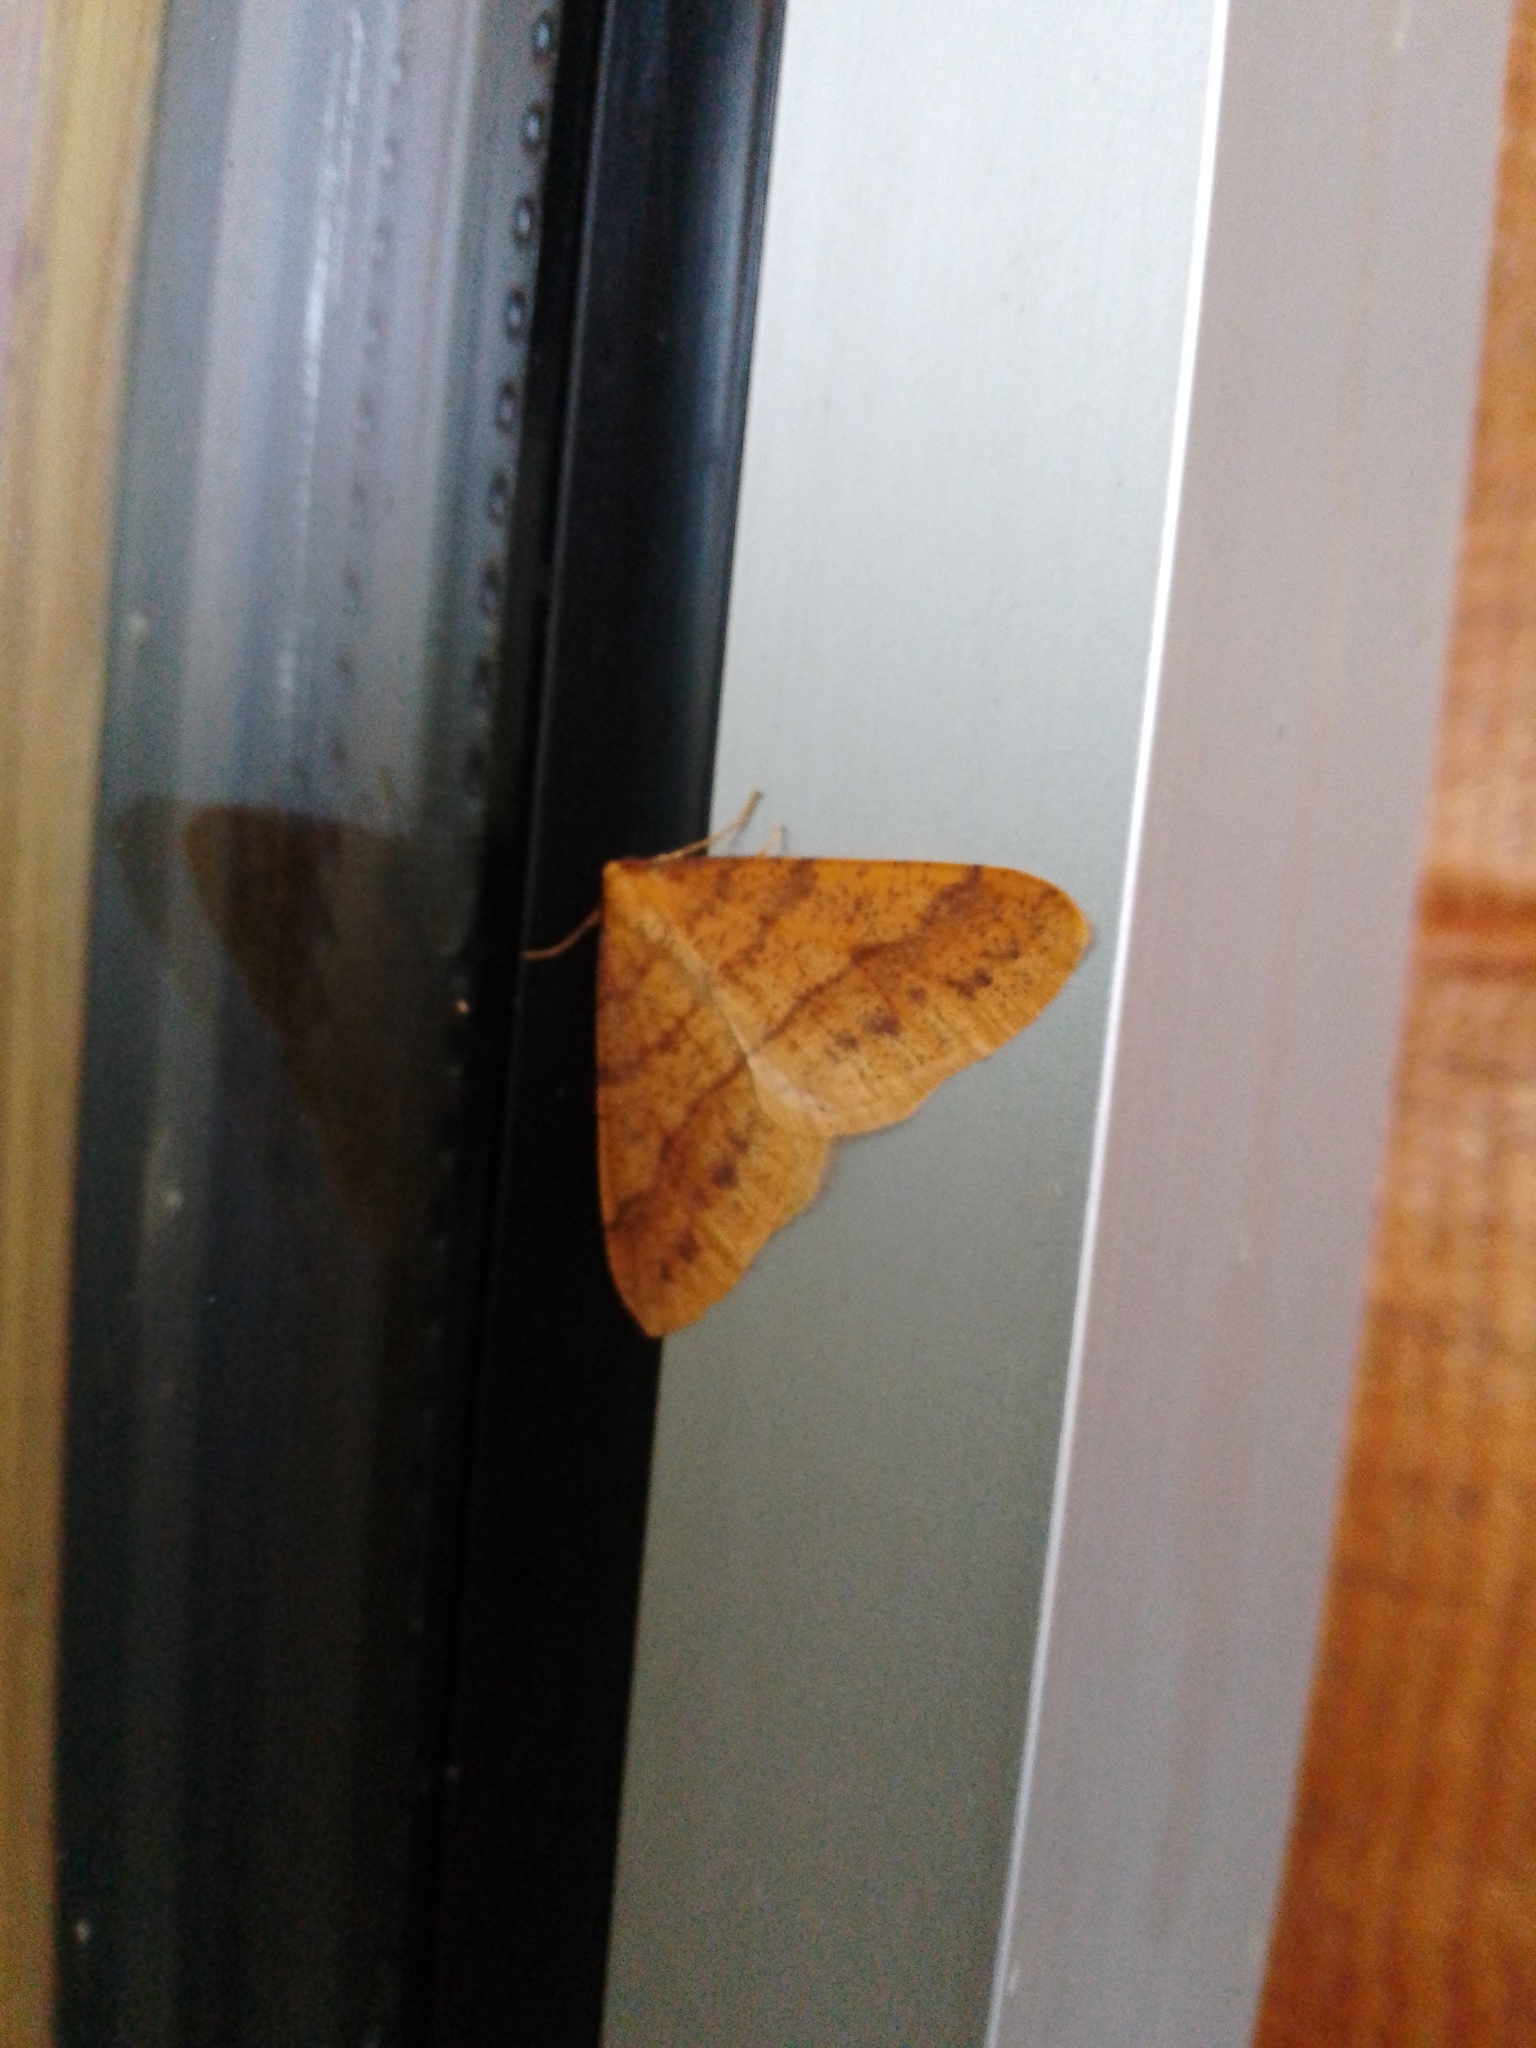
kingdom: Animalia
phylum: Arthropoda
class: Insecta
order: Lepidoptera
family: Geometridae
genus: Agriopis
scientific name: Agriopis aurantiaria
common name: Scarce umber
